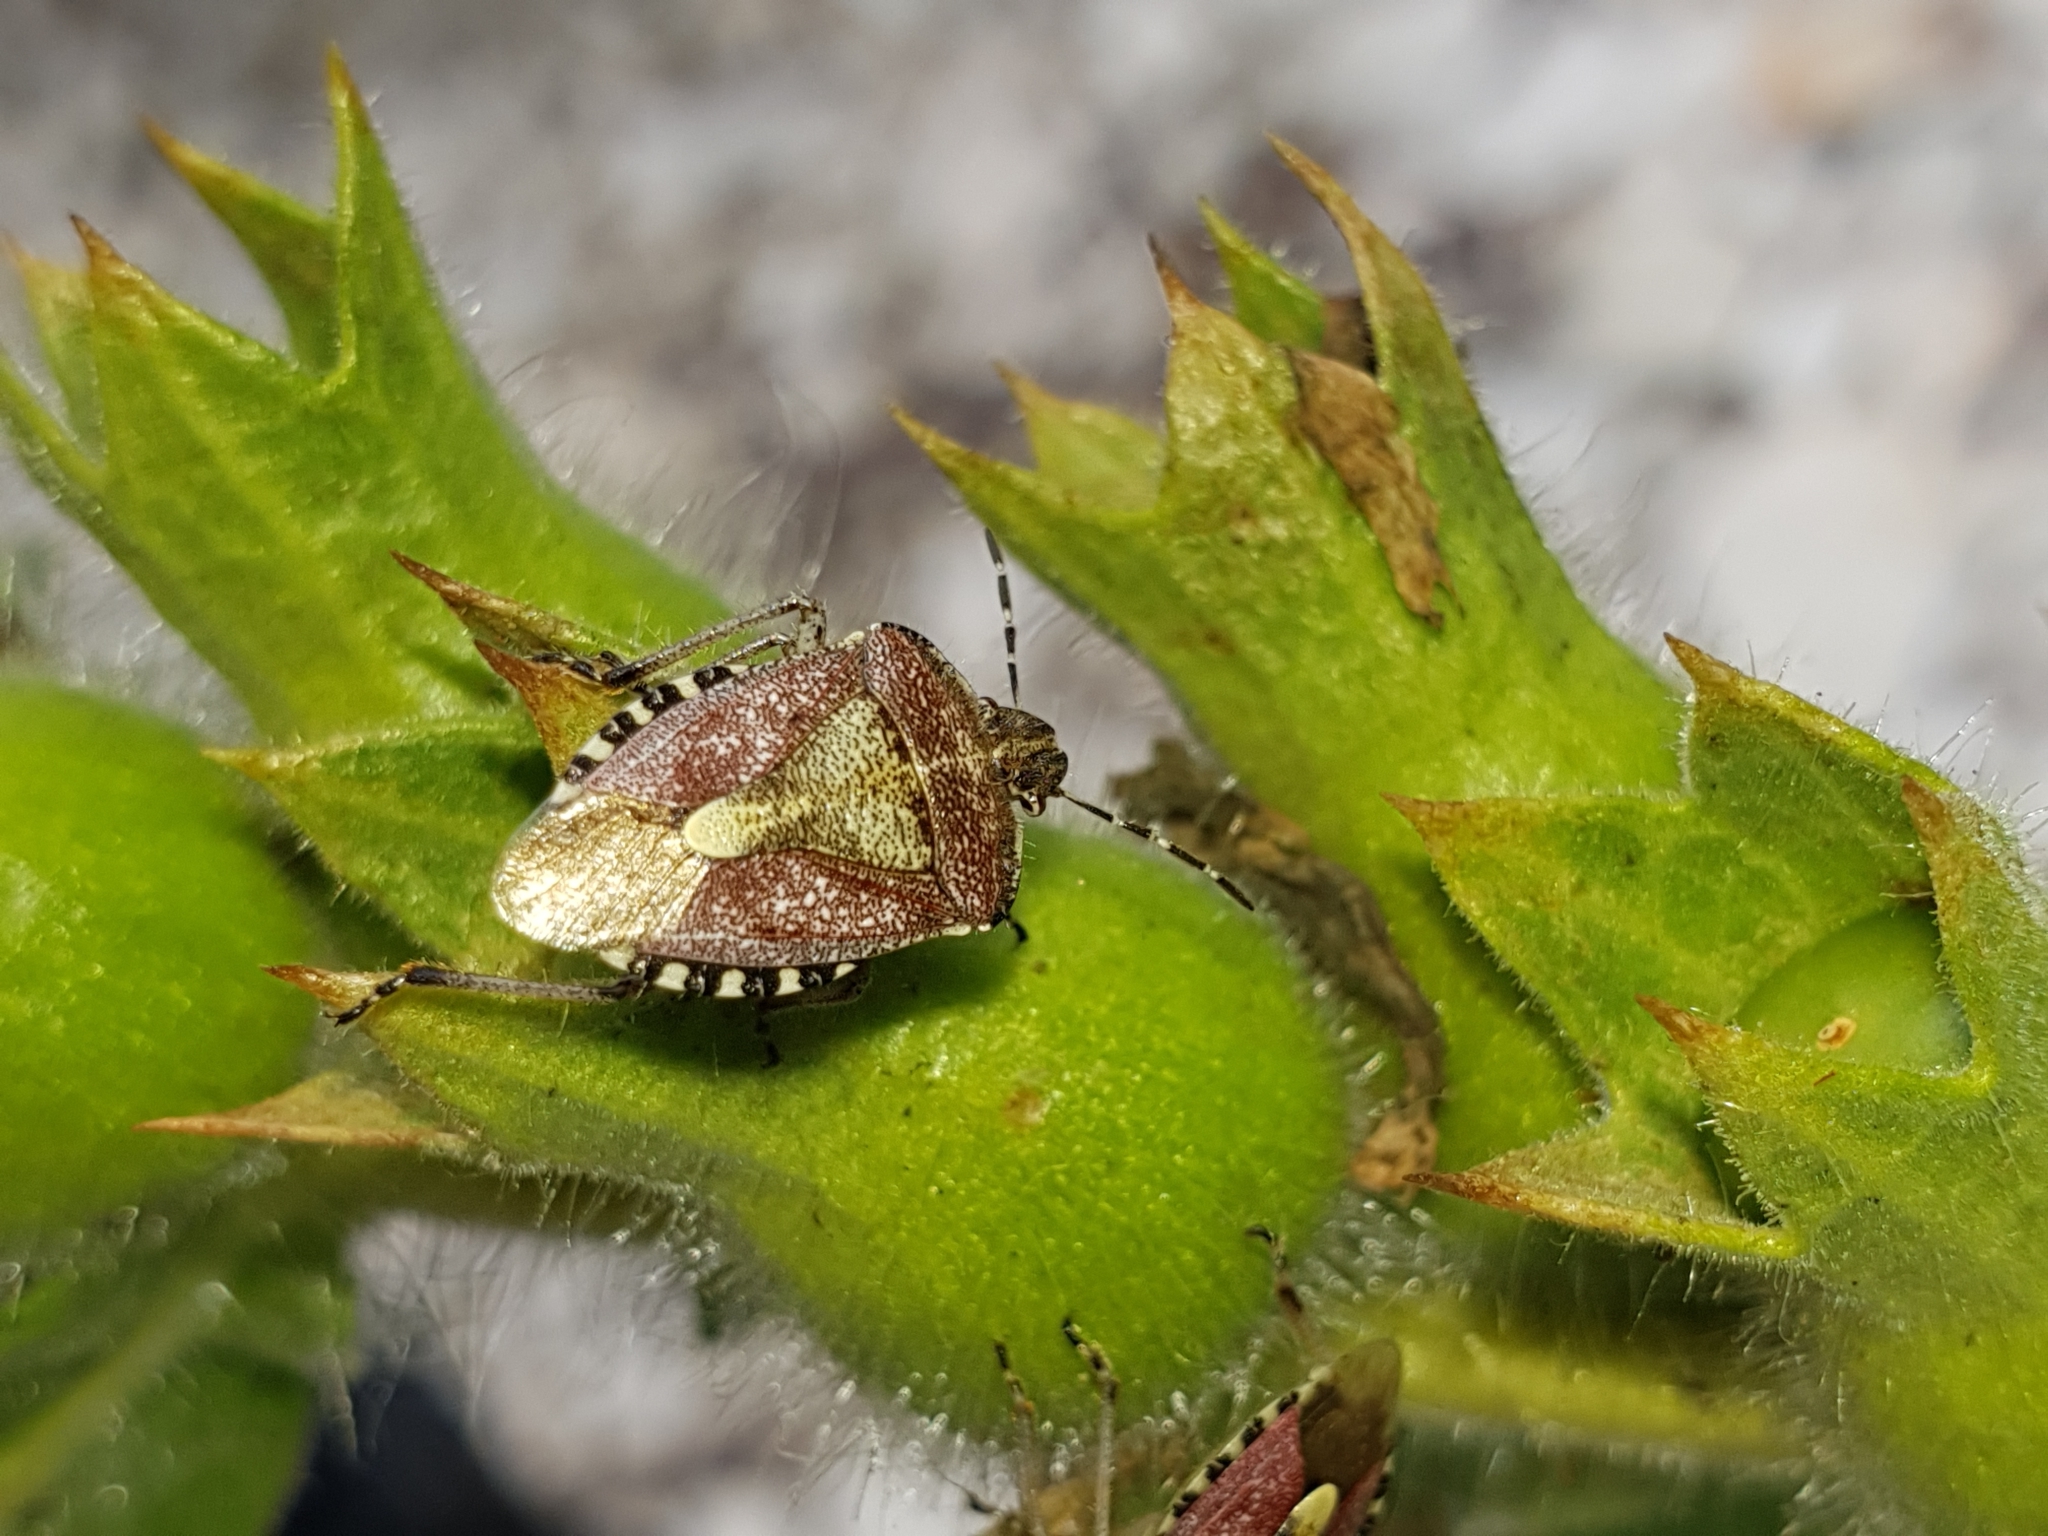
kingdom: Animalia
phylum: Arthropoda
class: Insecta
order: Hemiptera
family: Pentatomidae
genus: Dolycoris
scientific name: Dolycoris baccarum
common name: Sloe bug
